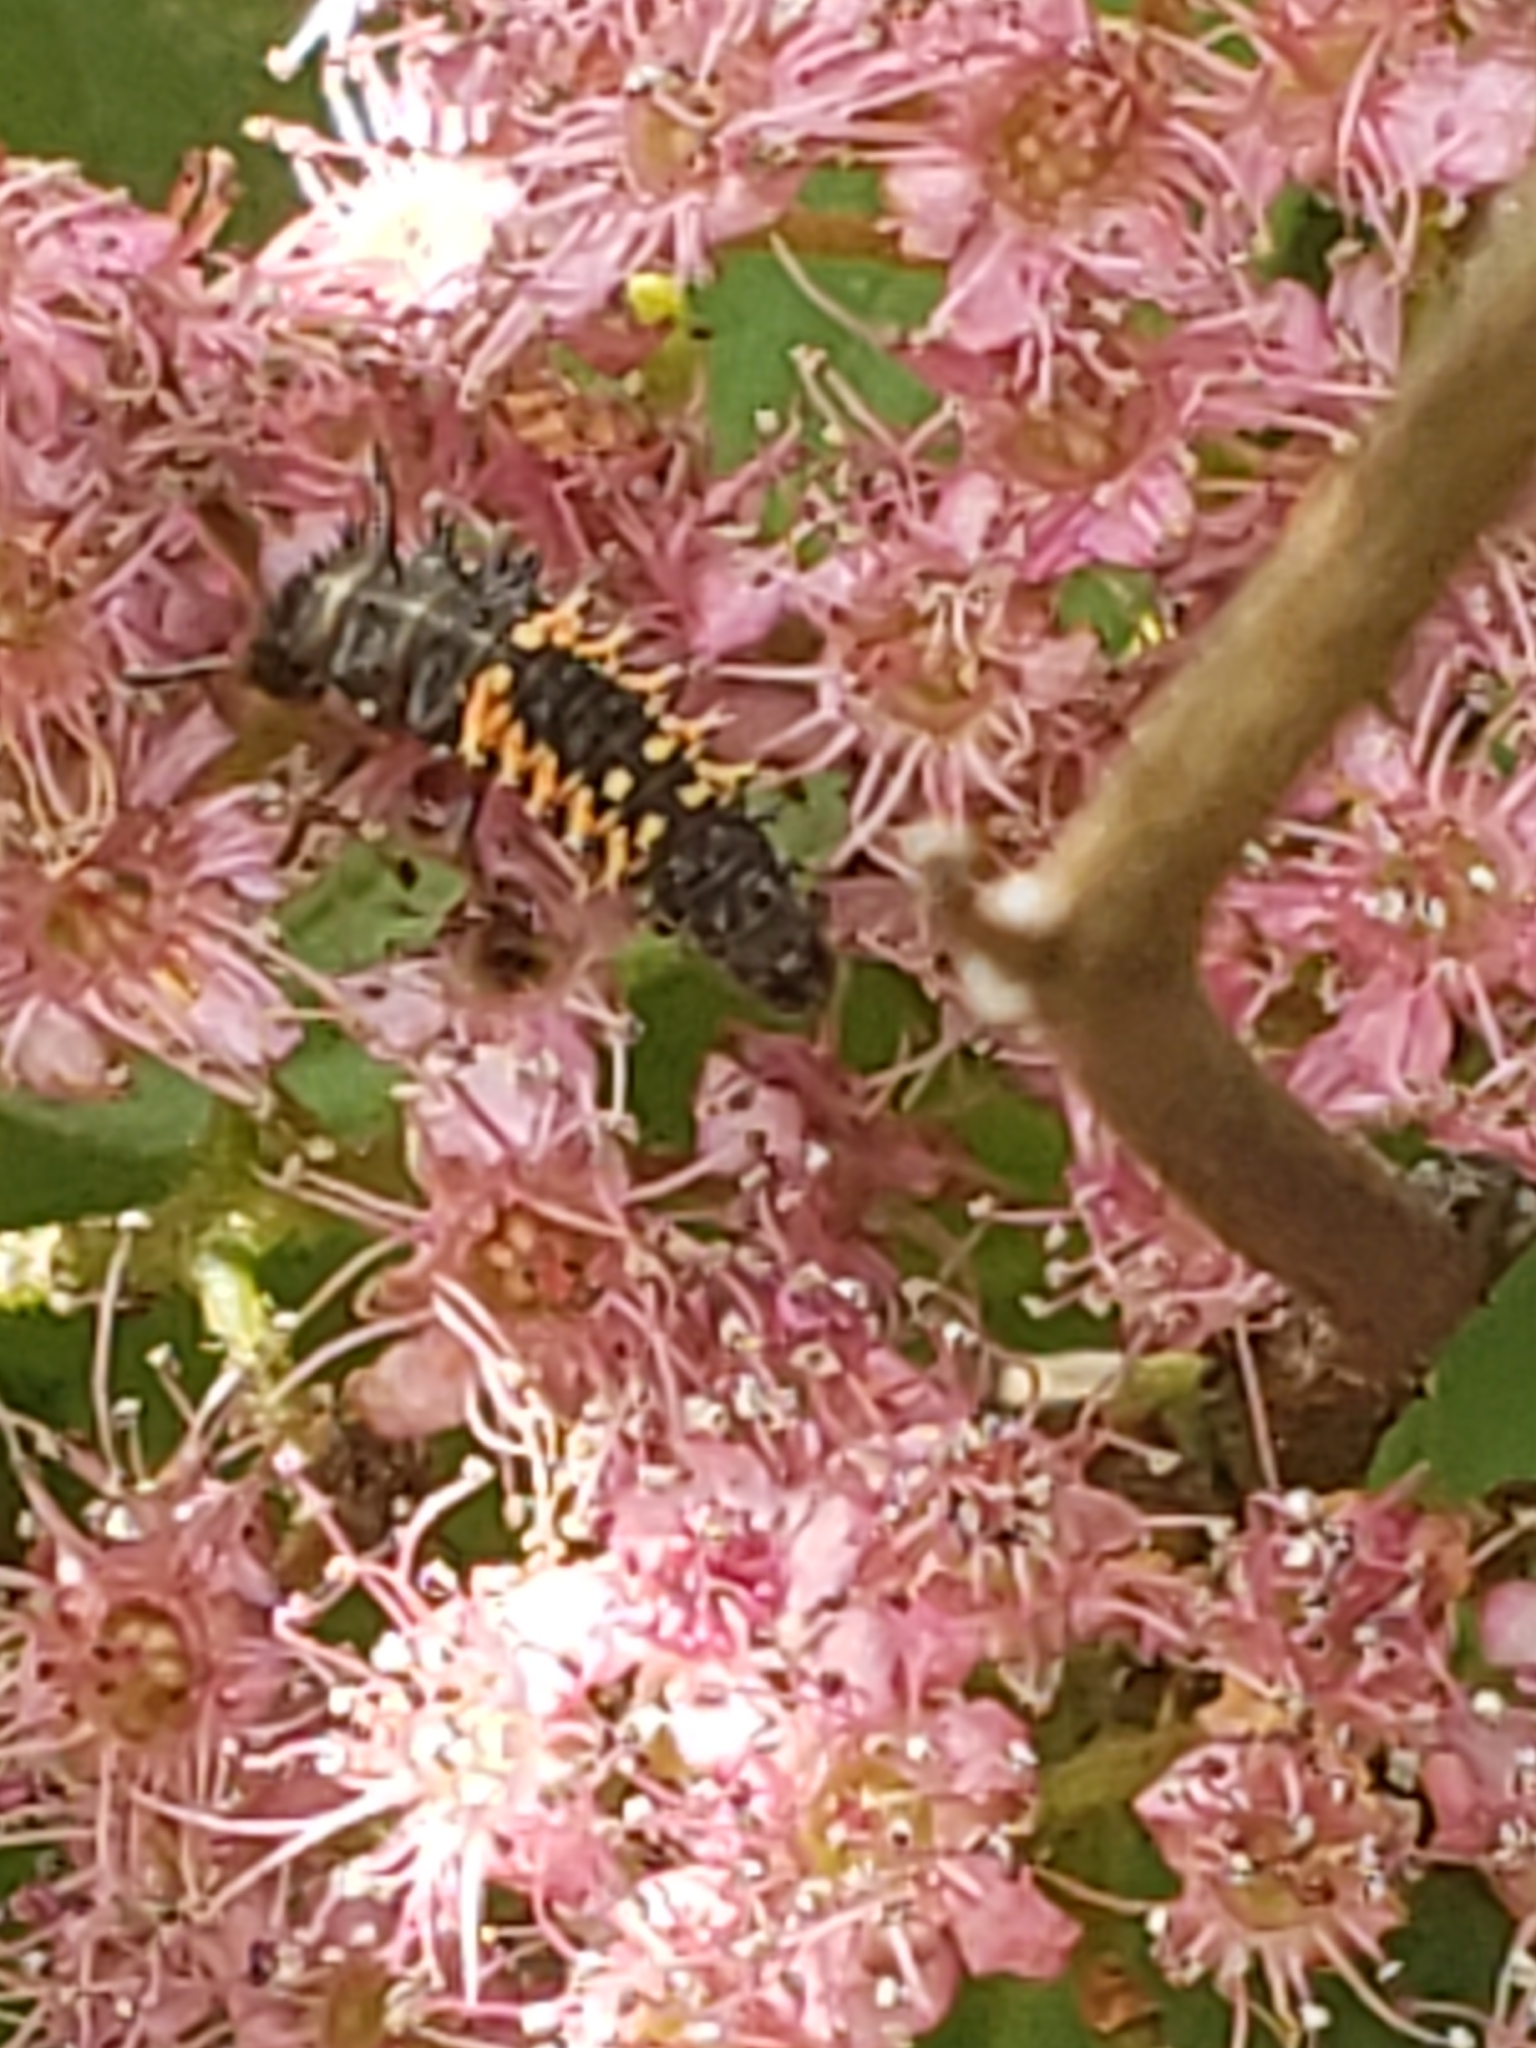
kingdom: Animalia
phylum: Arthropoda
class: Insecta
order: Coleoptera
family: Coccinellidae
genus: Harmonia
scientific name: Harmonia axyridis
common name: Harlequin ladybird
